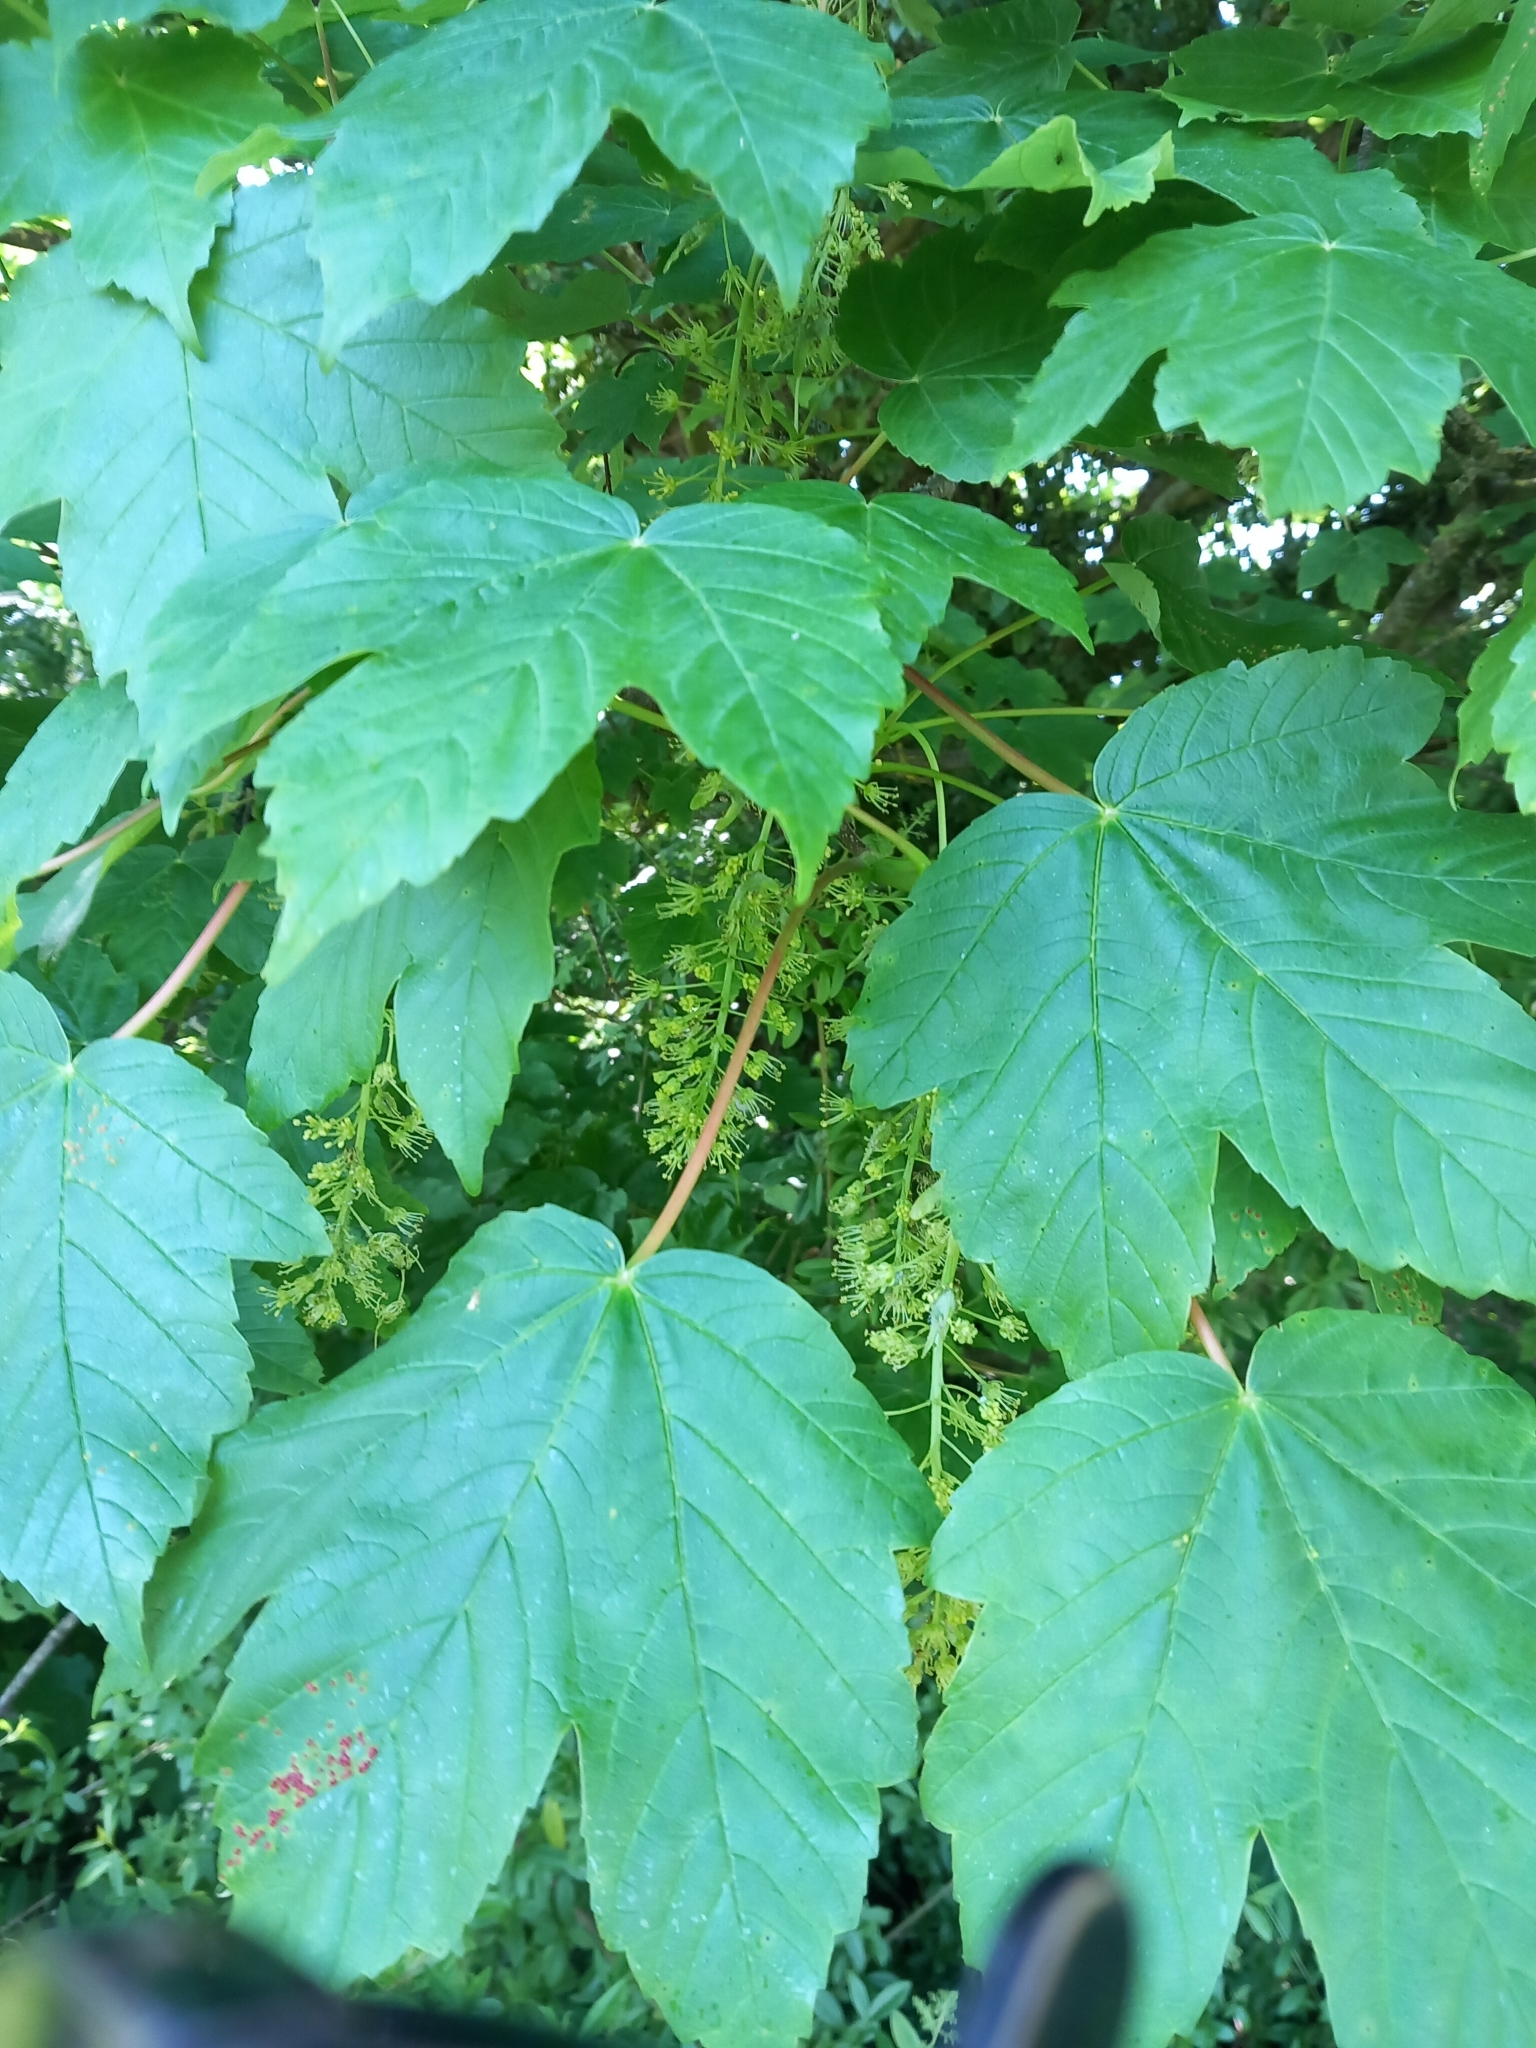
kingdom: Plantae
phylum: Tracheophyta
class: Magnoliopsida
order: Sapindales
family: Sapindaceae
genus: Acer
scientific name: Acer pseudoplatanus
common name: Sycamore
